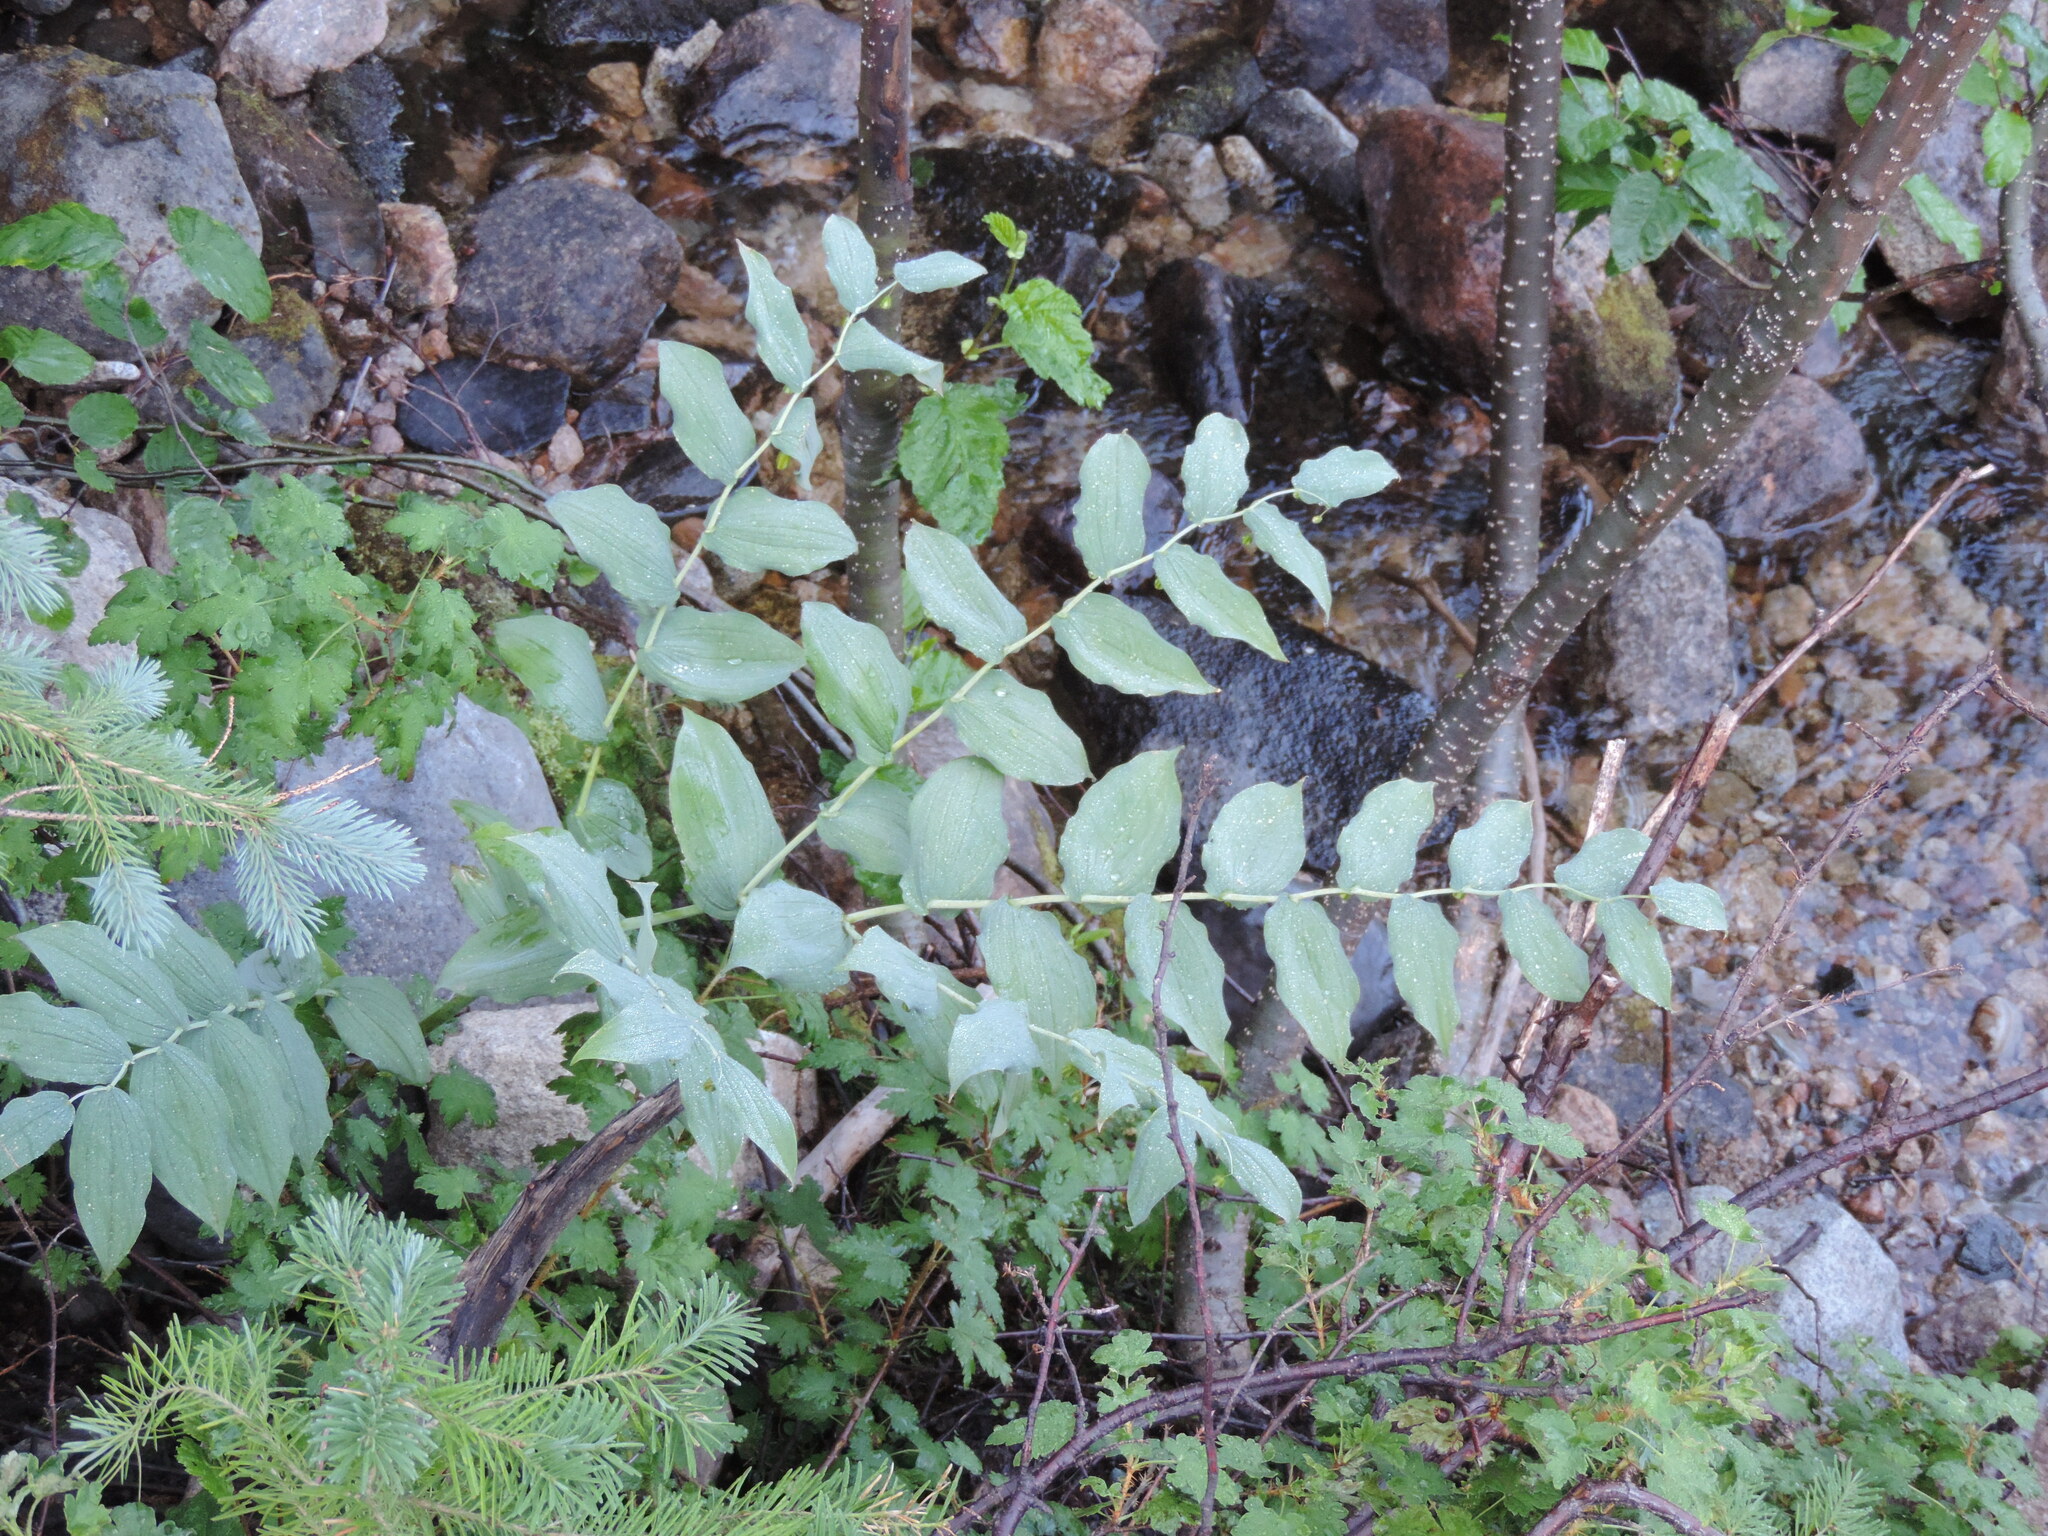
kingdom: Plantae
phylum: Tracheophyta
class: Liliopsida
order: Liliales
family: Liliaceae
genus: Streptopus
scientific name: Streptopus amplexifolius
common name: Clasp twisted stalk
